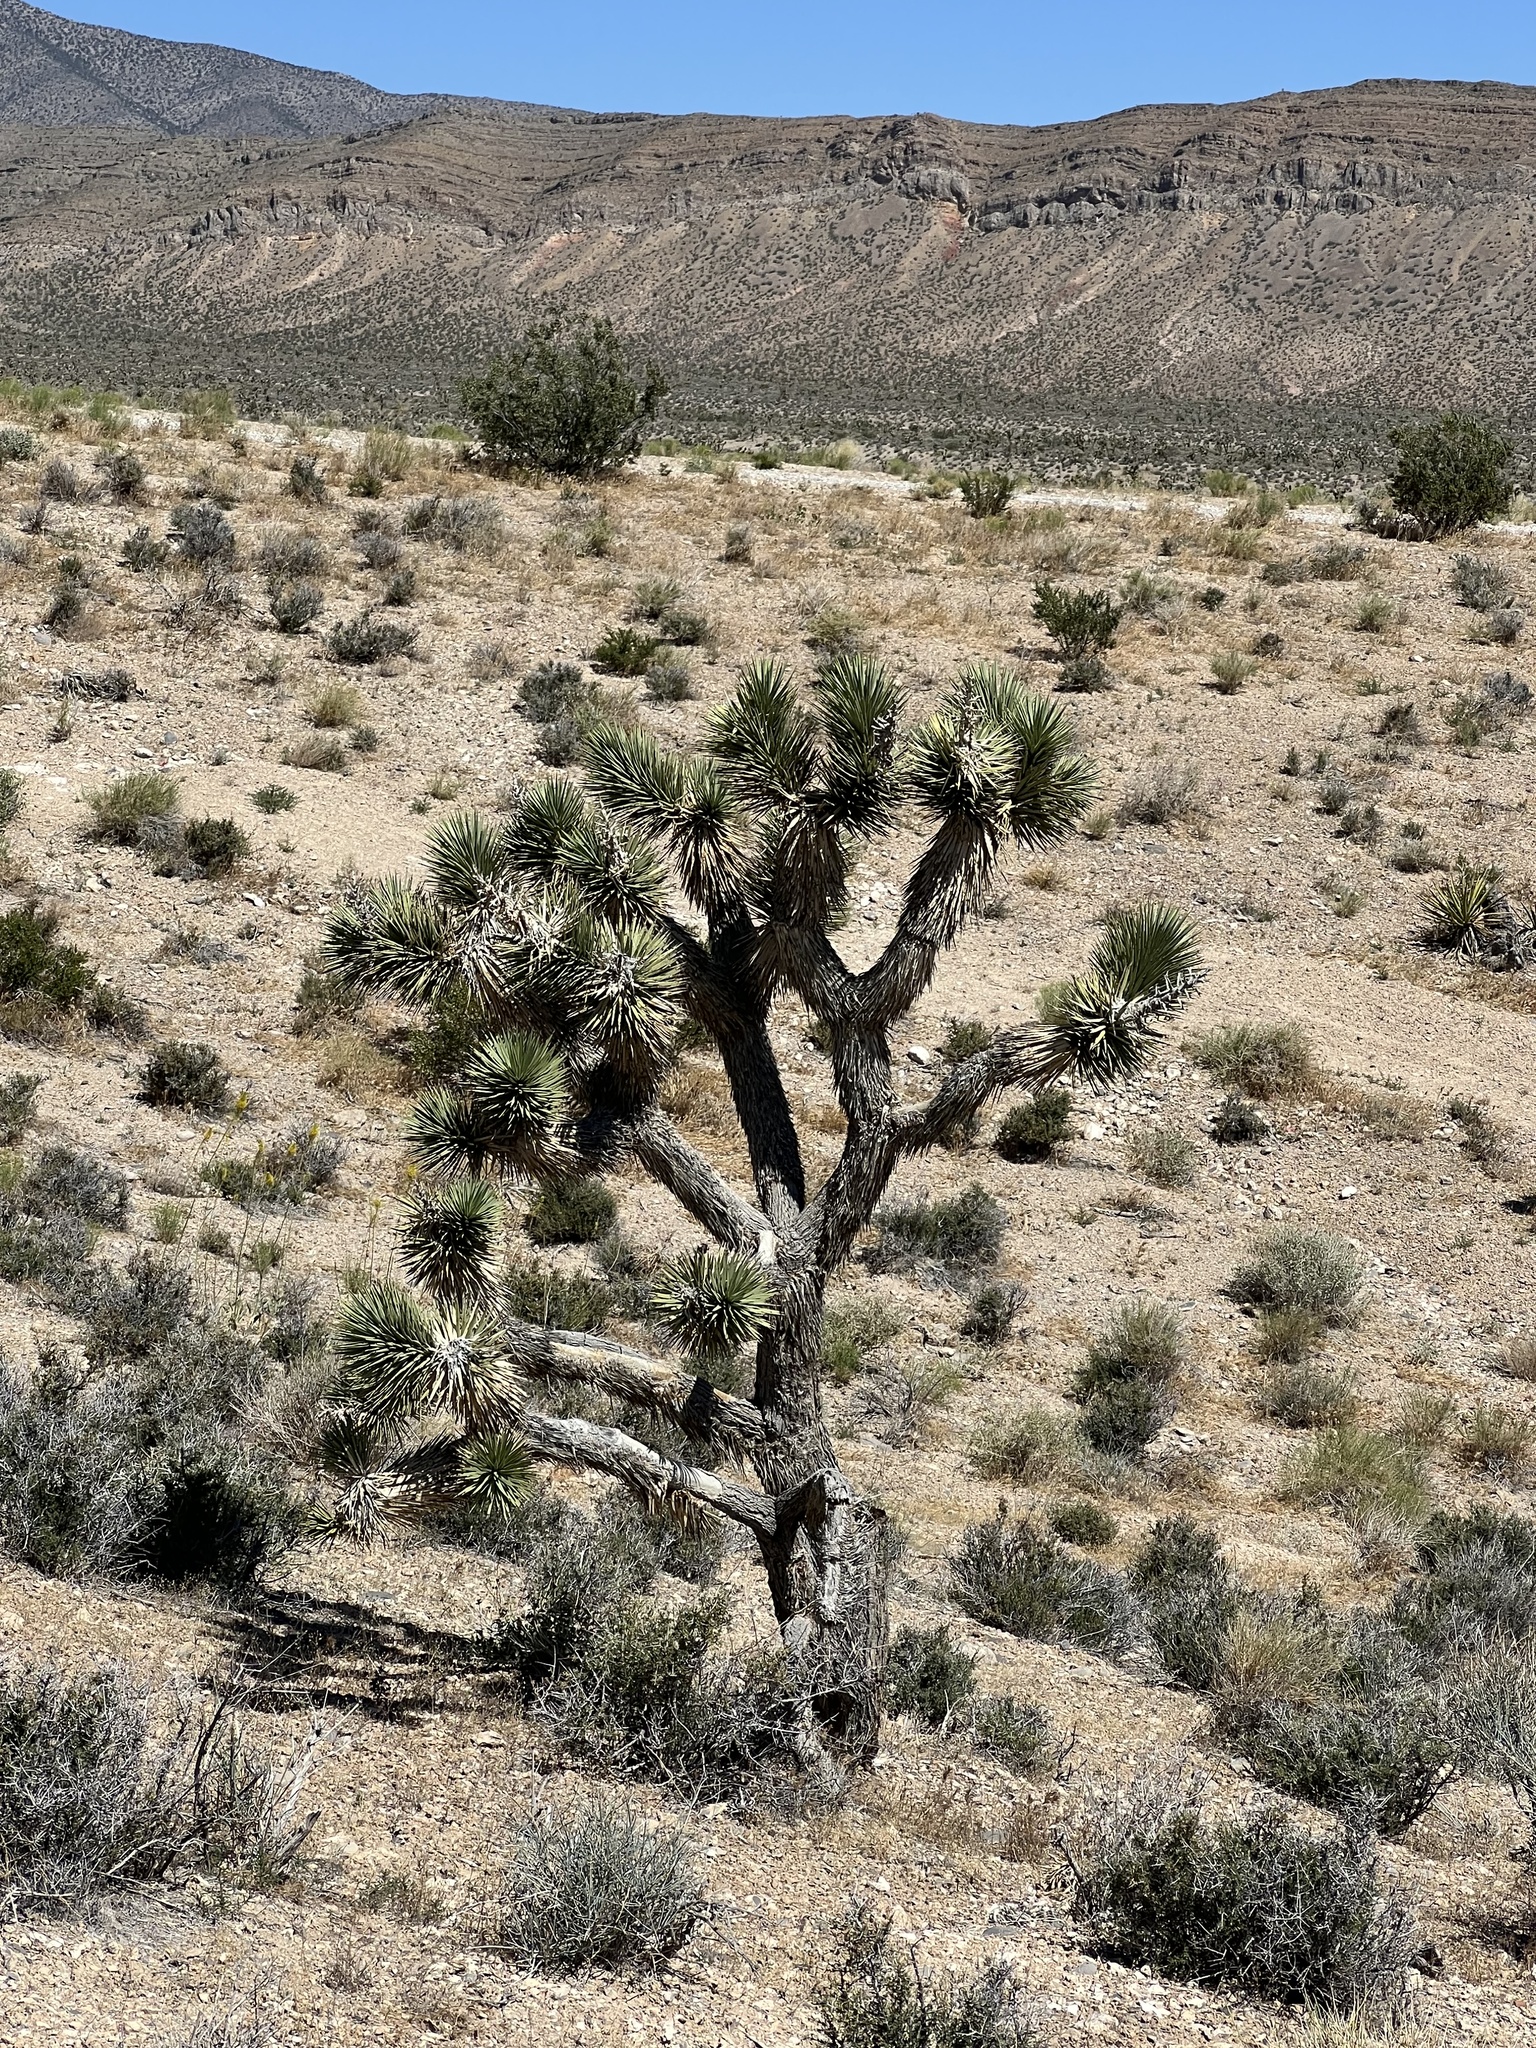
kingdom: Plantae
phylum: Tracheophyta
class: Liliopsida
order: Asparagales
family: Asparagaceae
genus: Yucca
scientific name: Yucca brevifolia
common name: Joshua tree
